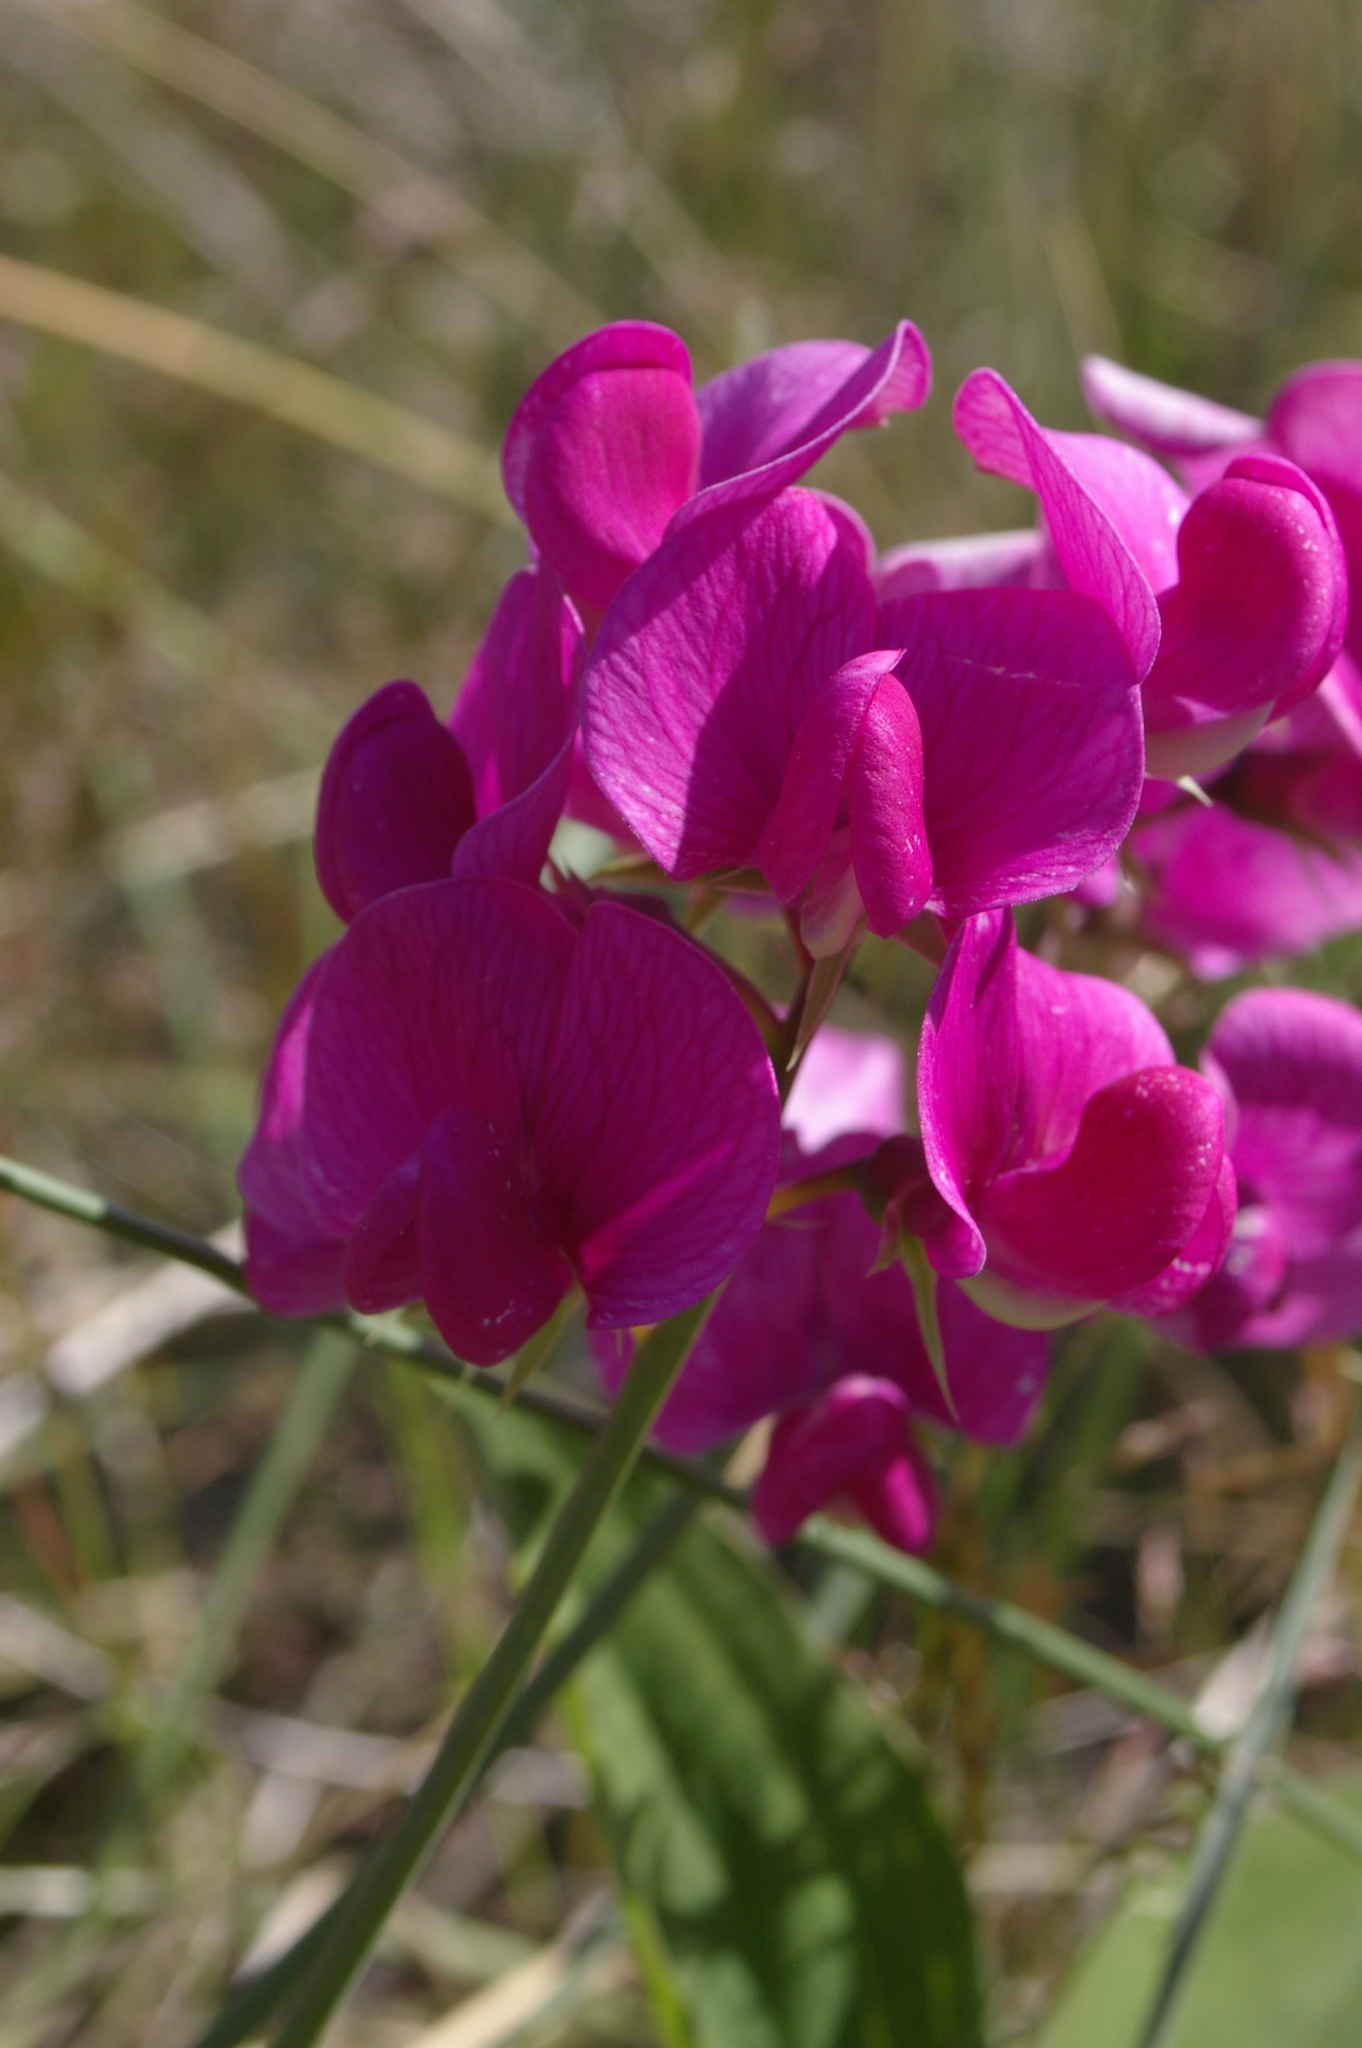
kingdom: Plantae
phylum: Tracheophyta
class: Magnoliopsida
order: Fabales
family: Fabaceae
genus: Lathyrus
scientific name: Lathyrus latifolius
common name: Perennial pea
